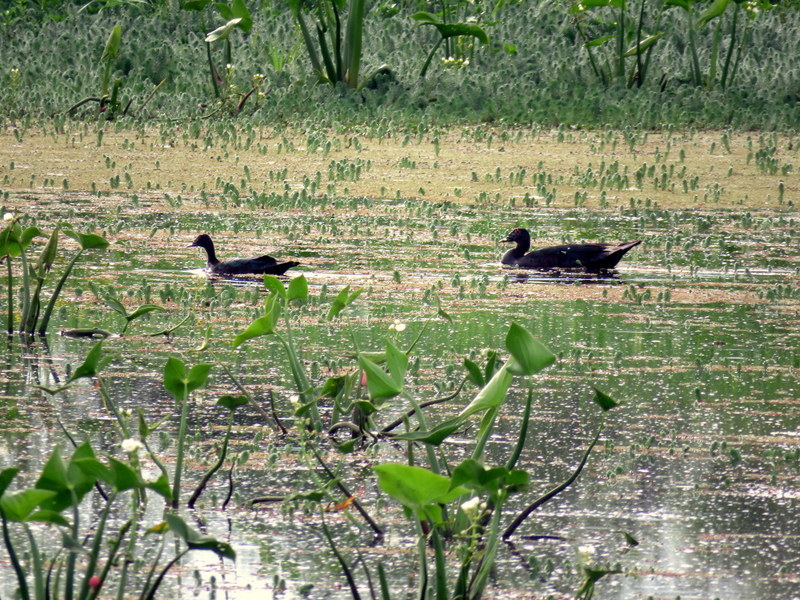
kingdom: Animalia
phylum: Chordata
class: Aves
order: Anseriformes
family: Anatidae
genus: Cairina
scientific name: Cairina moschata
